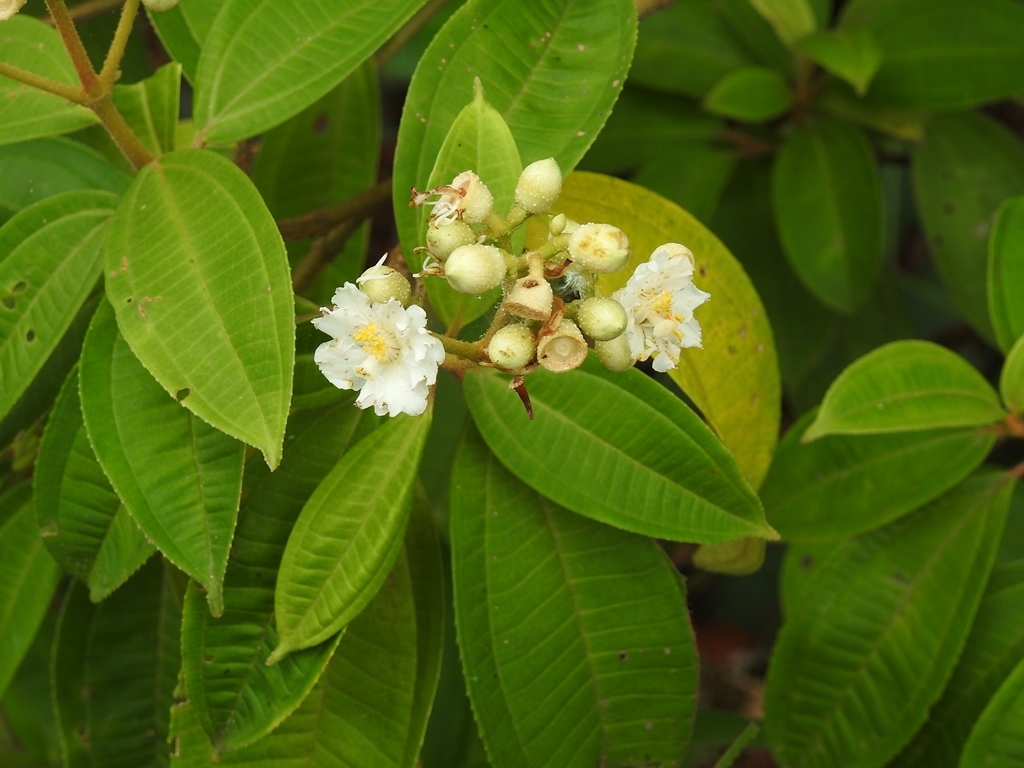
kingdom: Plantae
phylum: Tracheophyta
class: Magnoliopsida
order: Myrtales
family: Melastomataceae
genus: Miconia
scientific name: Miconia subhirsuta
